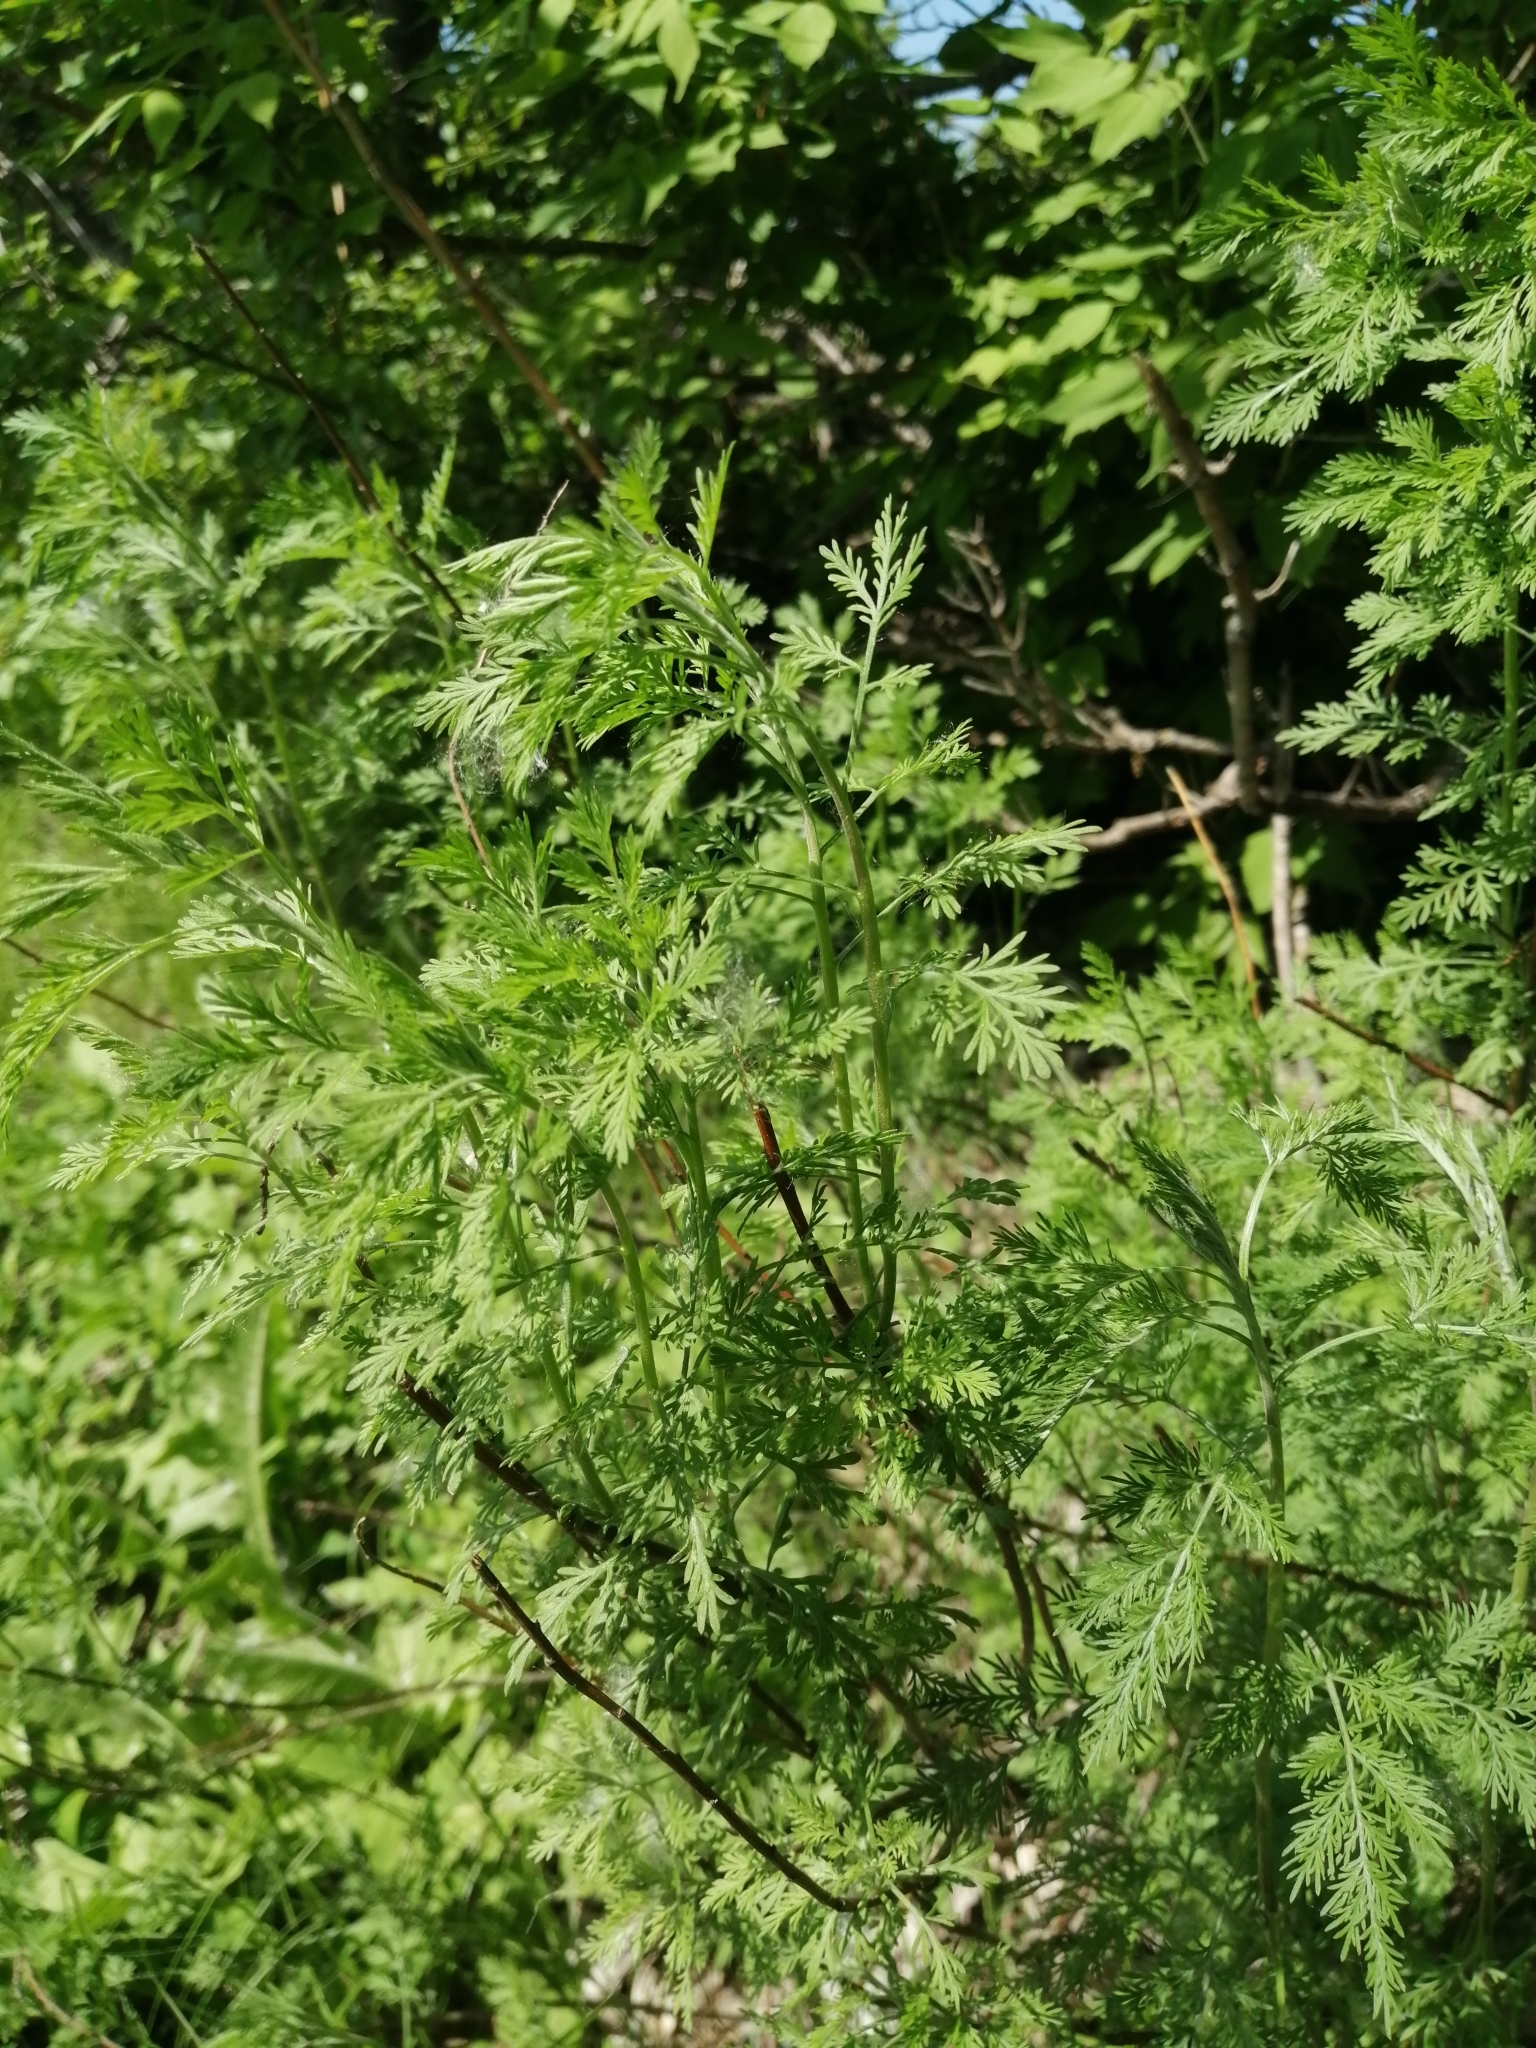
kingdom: Plantae
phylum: Tracheophyta
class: Magnoliopsida
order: Asterales
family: Asteraceae
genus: Artemisia
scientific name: Artemisia abrotanum
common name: Southernwood
